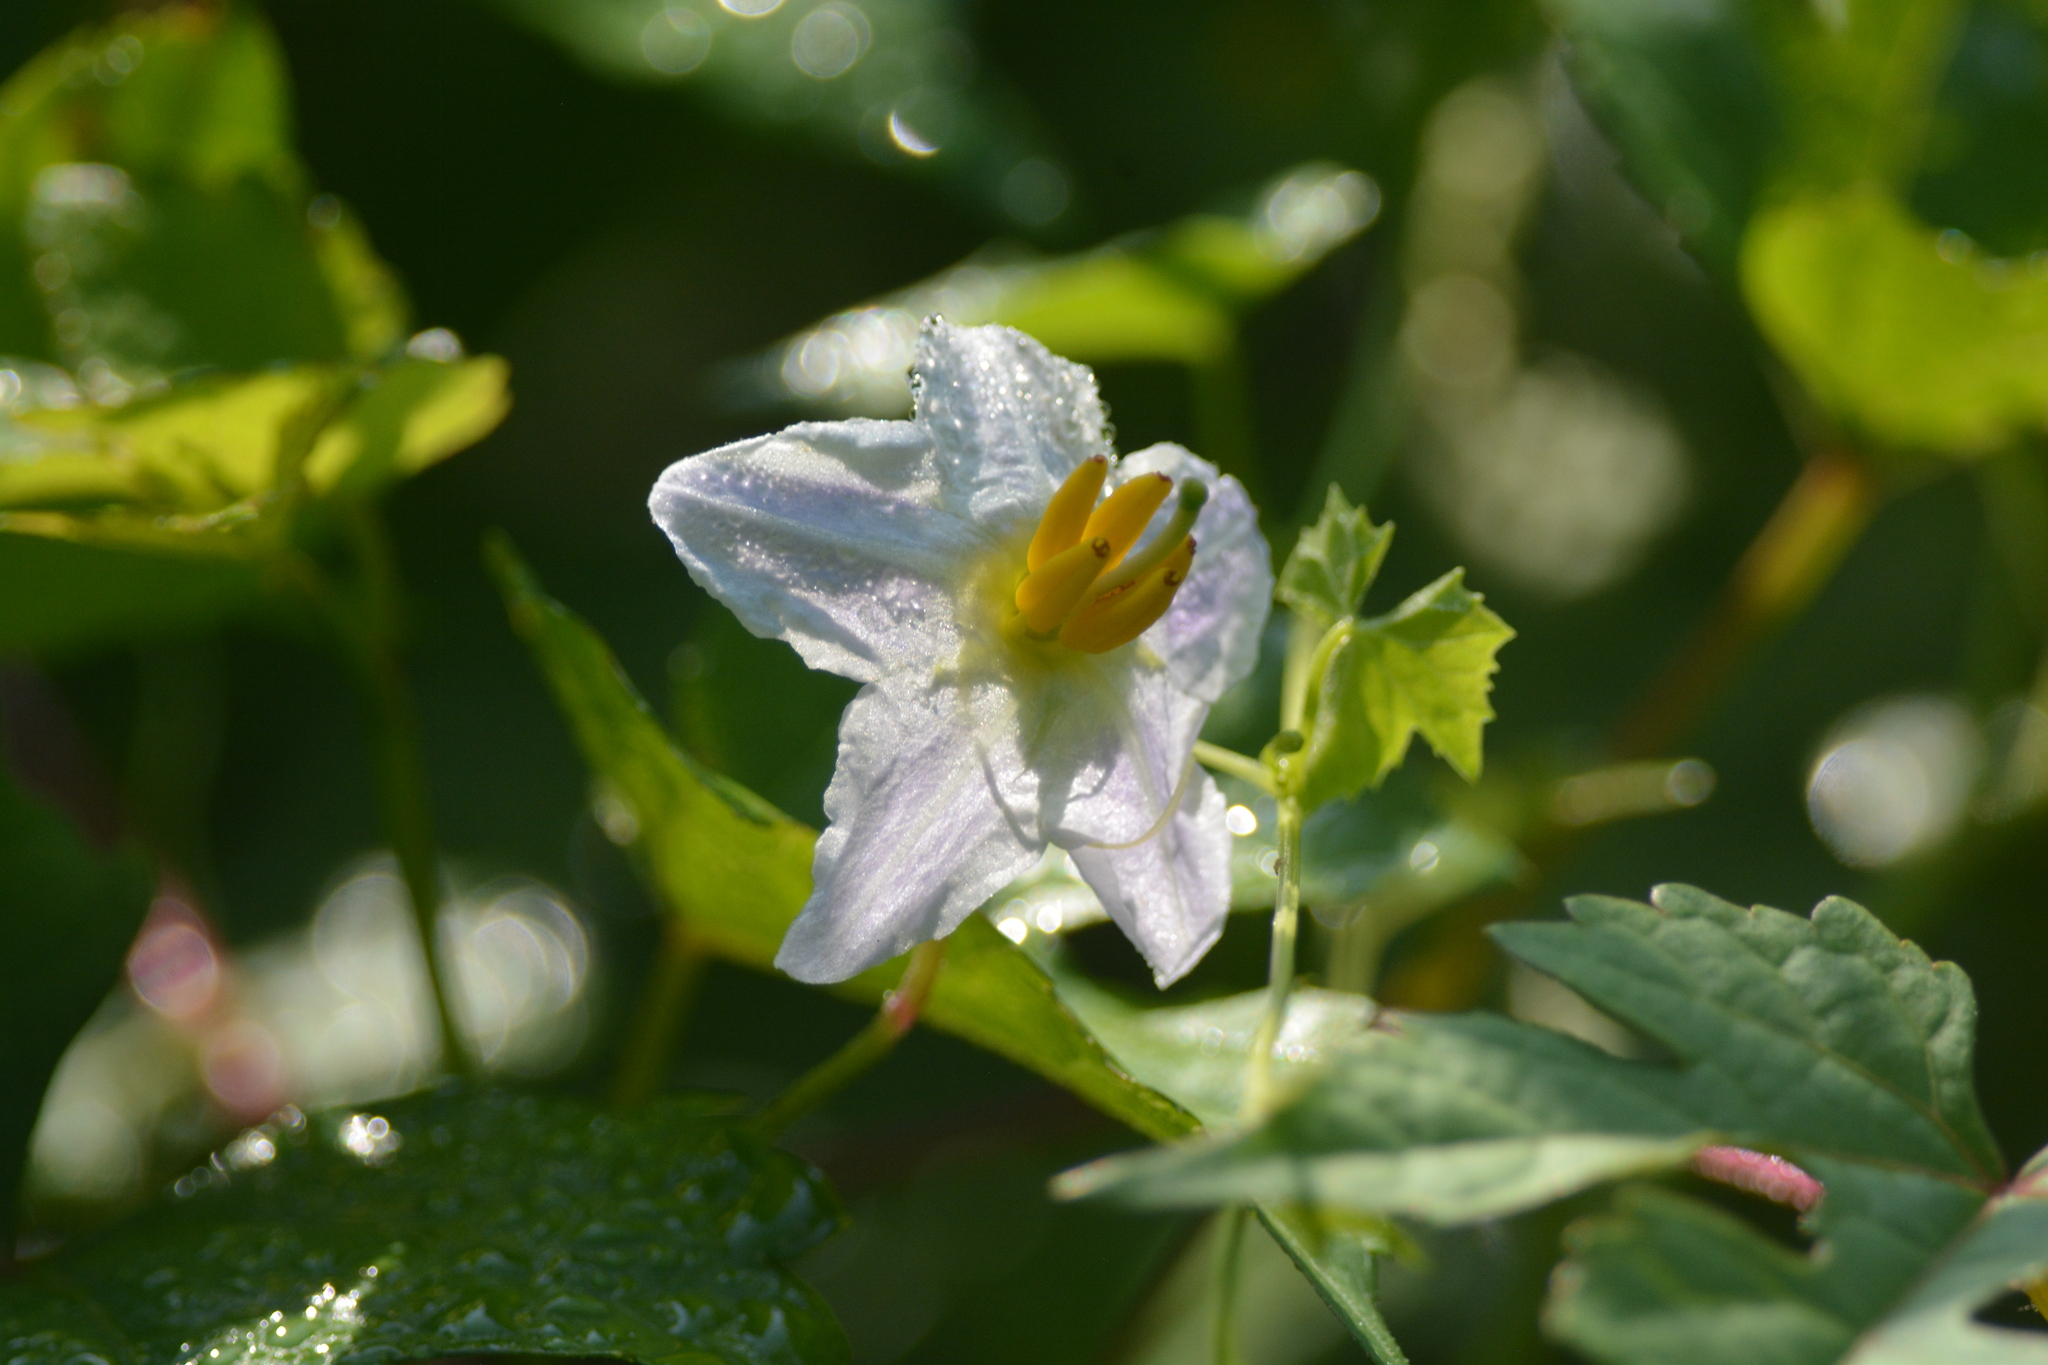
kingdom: Plantae
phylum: Tracheophyta
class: Magnoliopsida
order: Solanales
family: Solanaceae
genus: Solanum
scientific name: Solanum carolinense
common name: Horse-nettle
